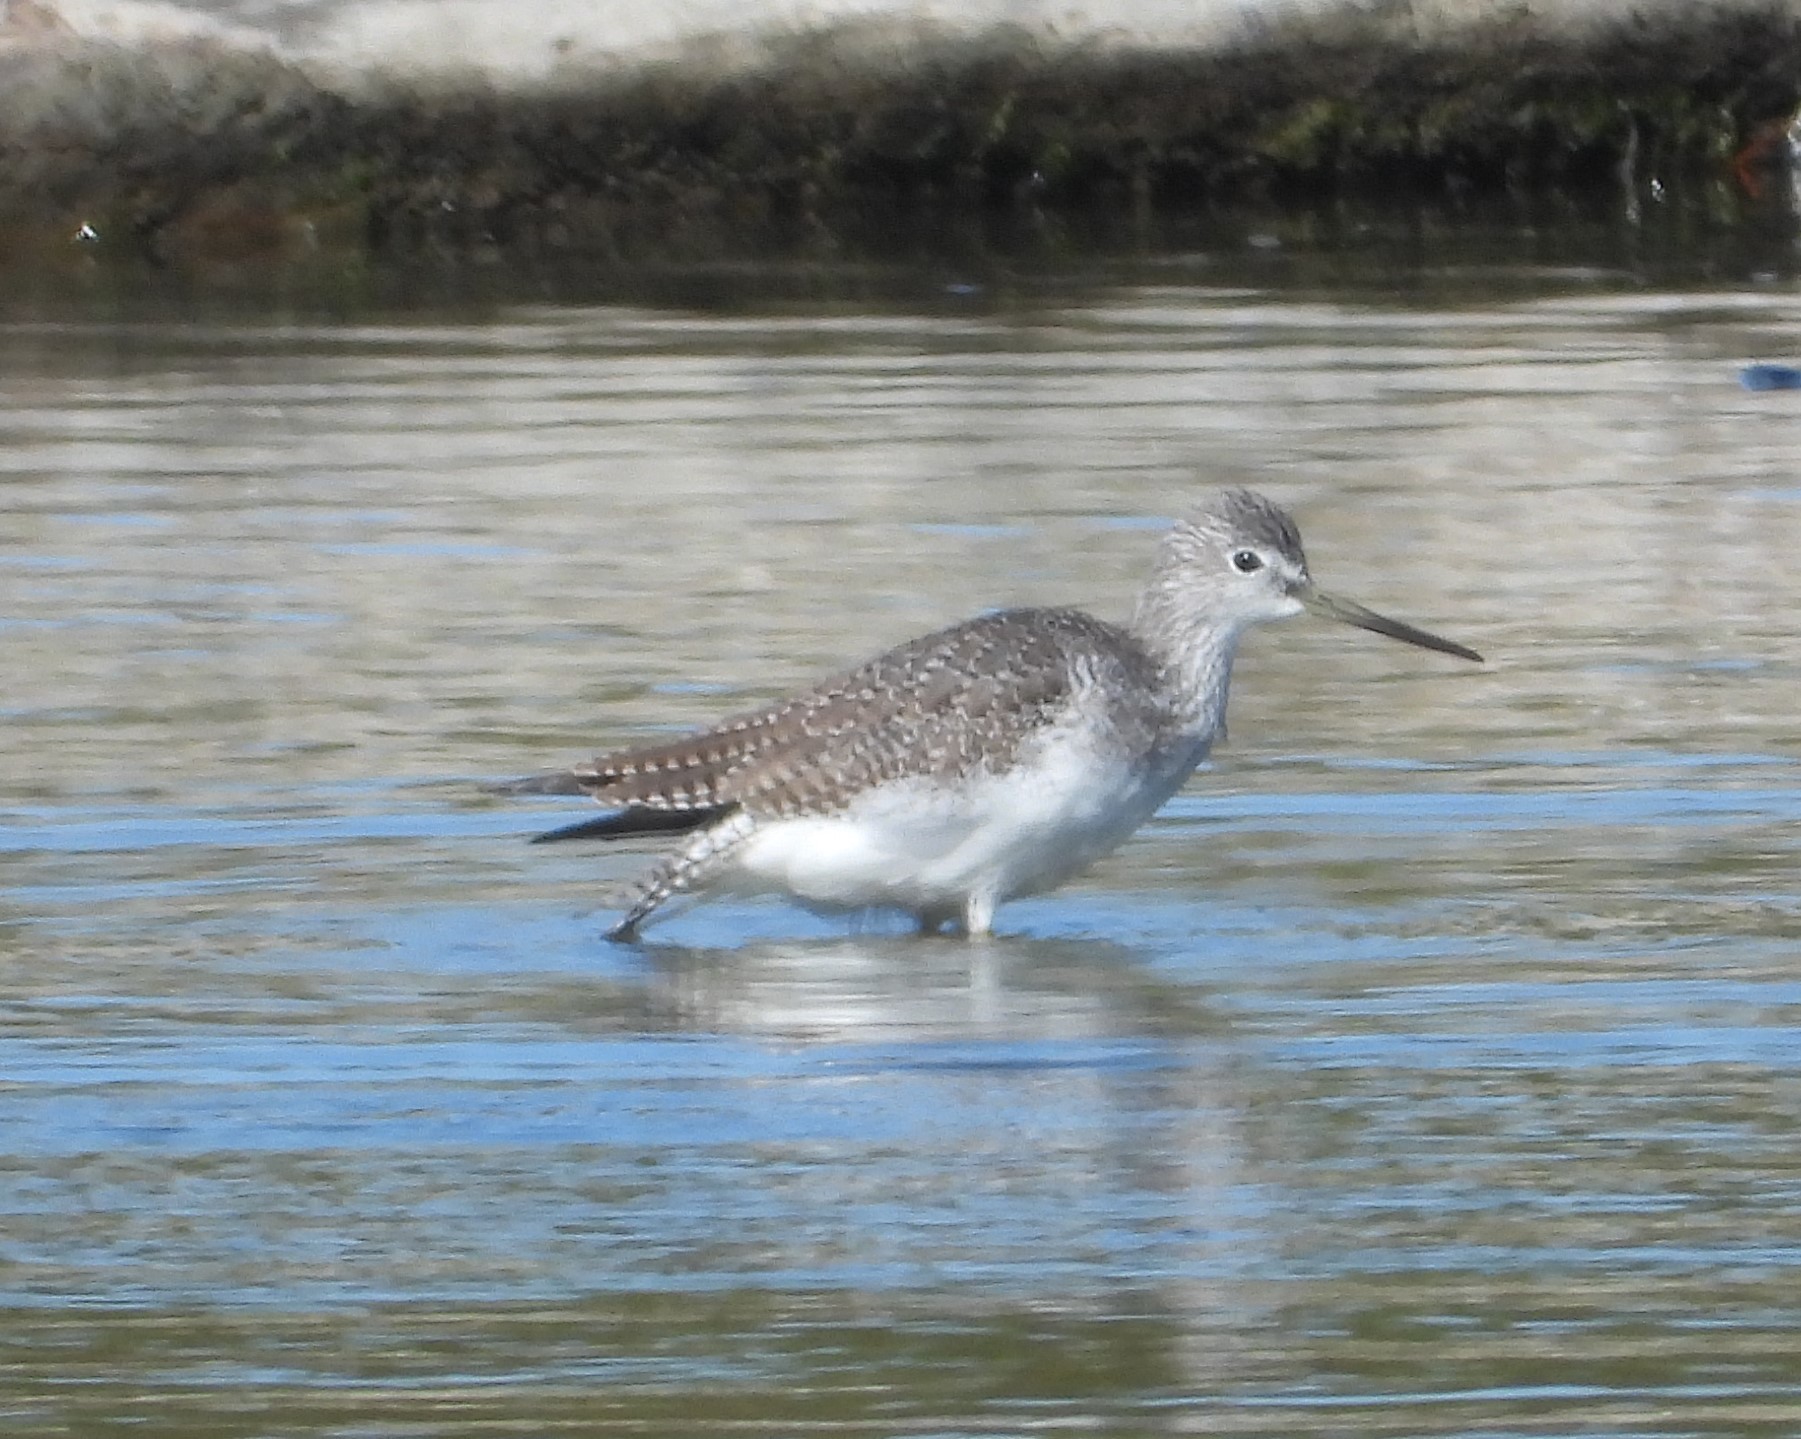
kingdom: Animalia
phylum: Chordata
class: Aves
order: Charadriiformes
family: Scolopacidae
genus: Tringa
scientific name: Tringa melanoleuca
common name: Greater yellowlegs
